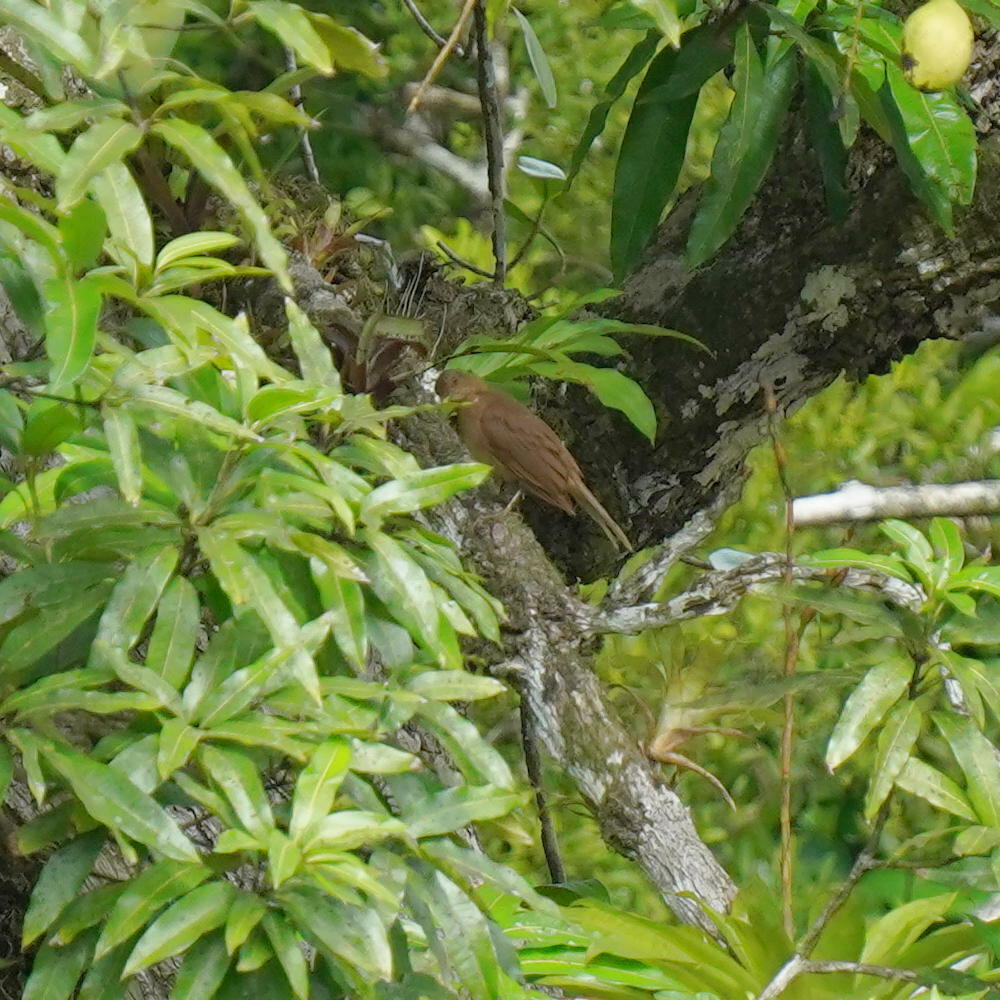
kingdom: Animalia
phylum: Chordata
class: Aves
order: Passeriformes
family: Turdidae
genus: Turdus
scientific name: Turdus grayi
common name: Clay-colored thrush
